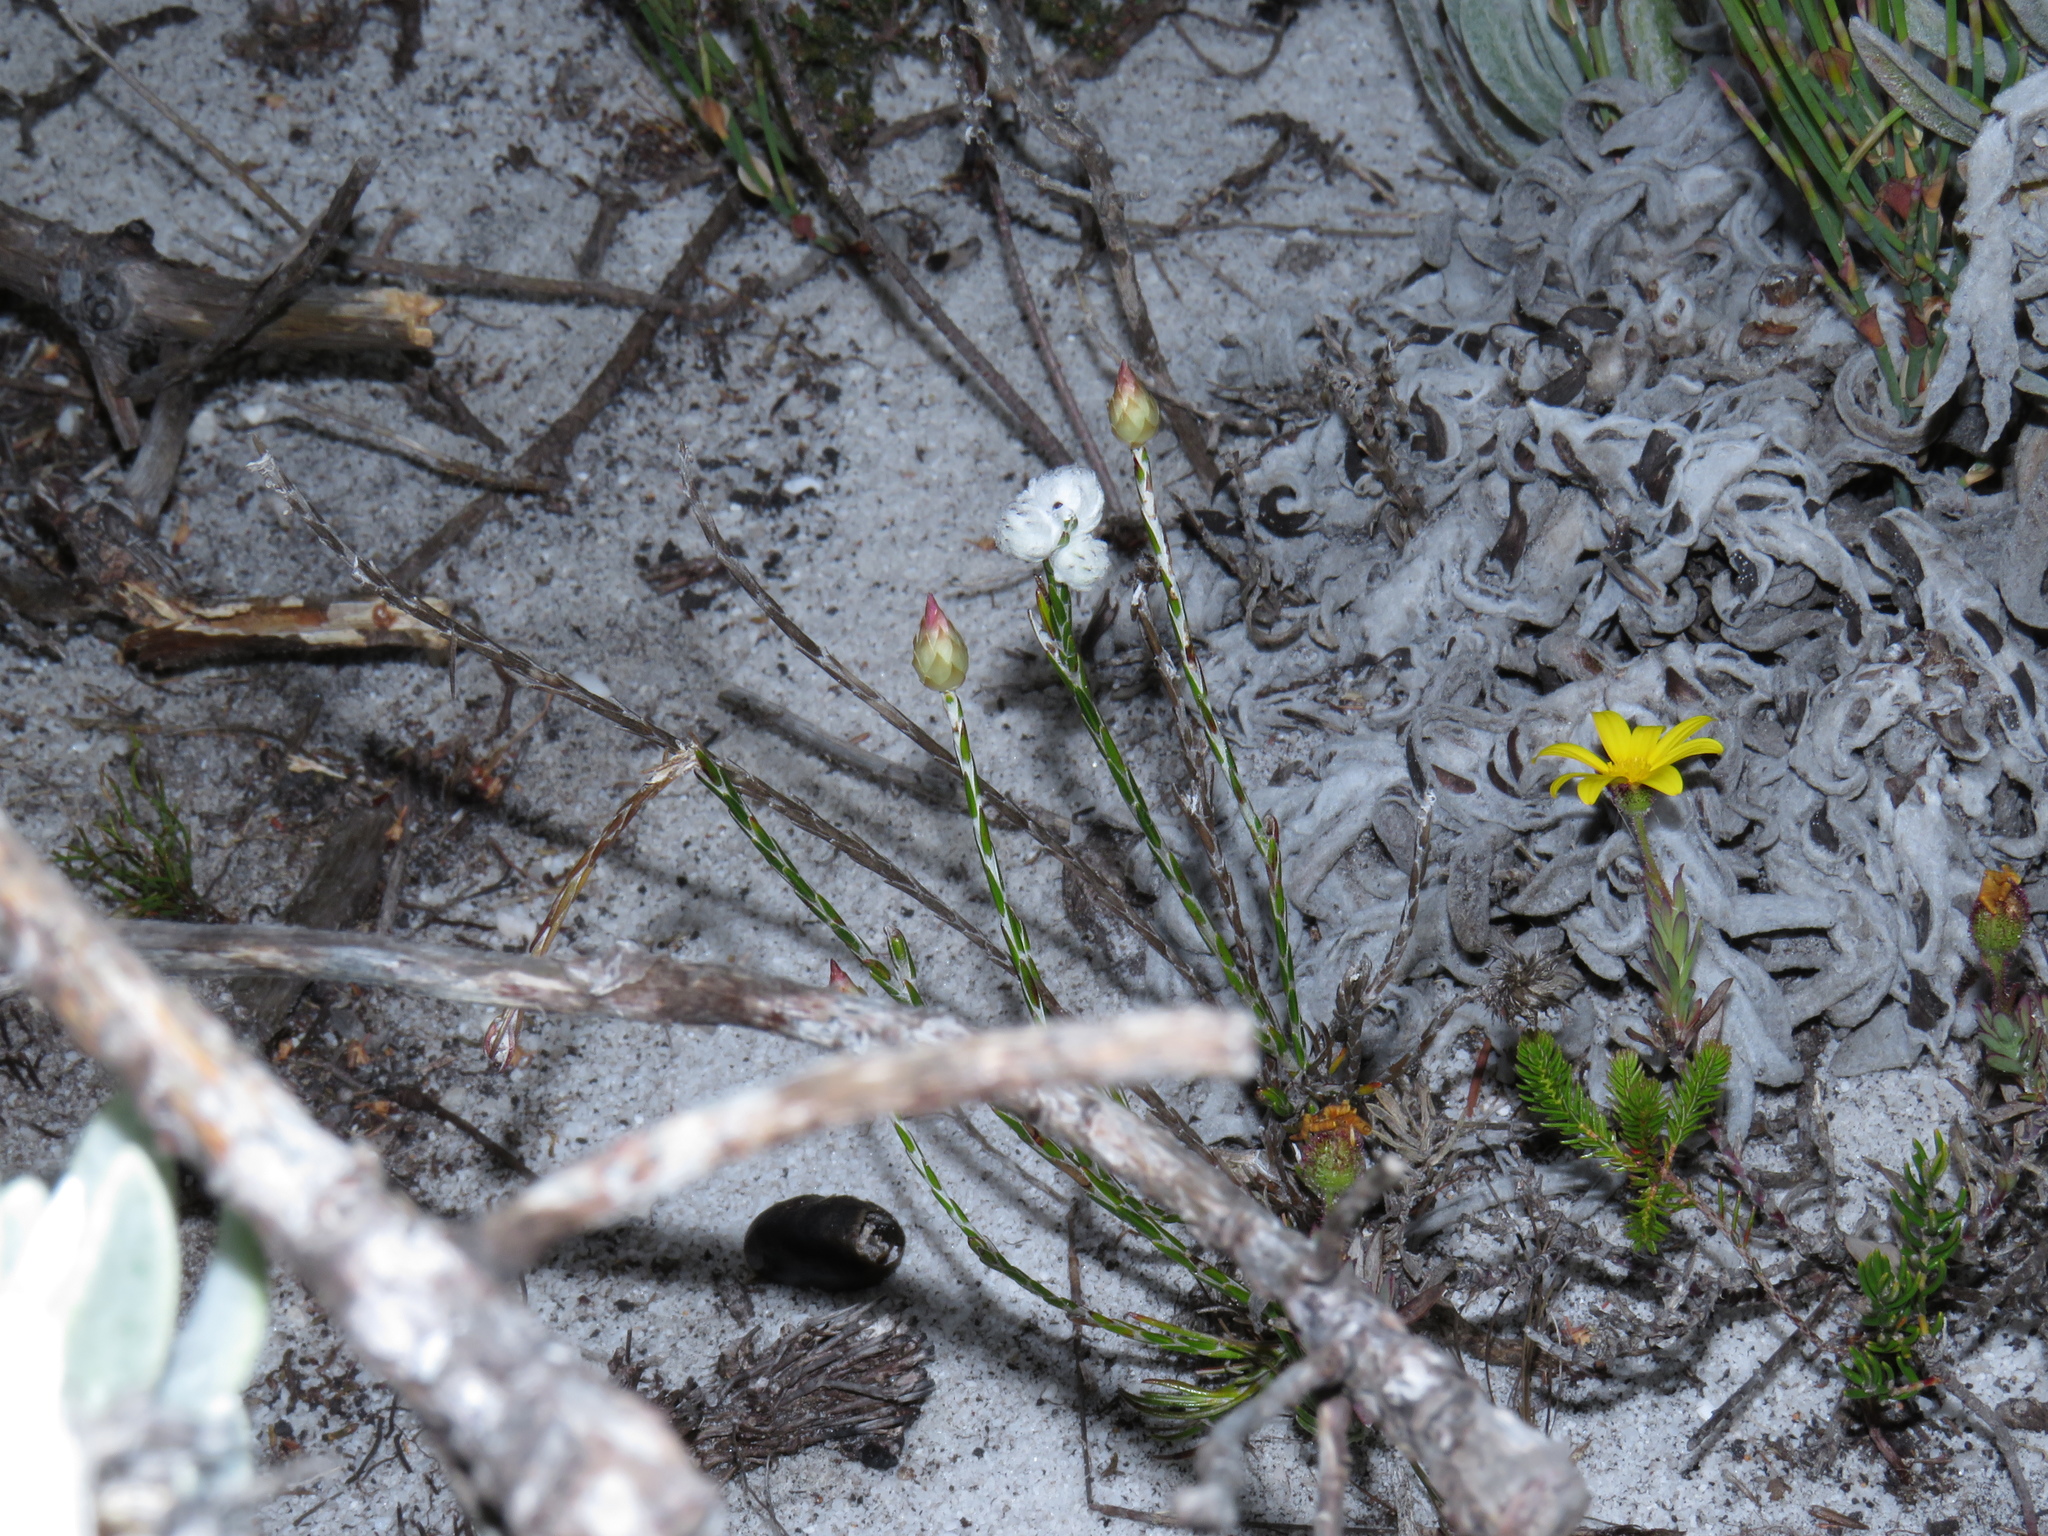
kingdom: Plantae
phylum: Tracheophyta
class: Magnoliopsida
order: Asterales
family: Asteraceae
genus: Edmondia
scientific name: Edmondia sesamoides
